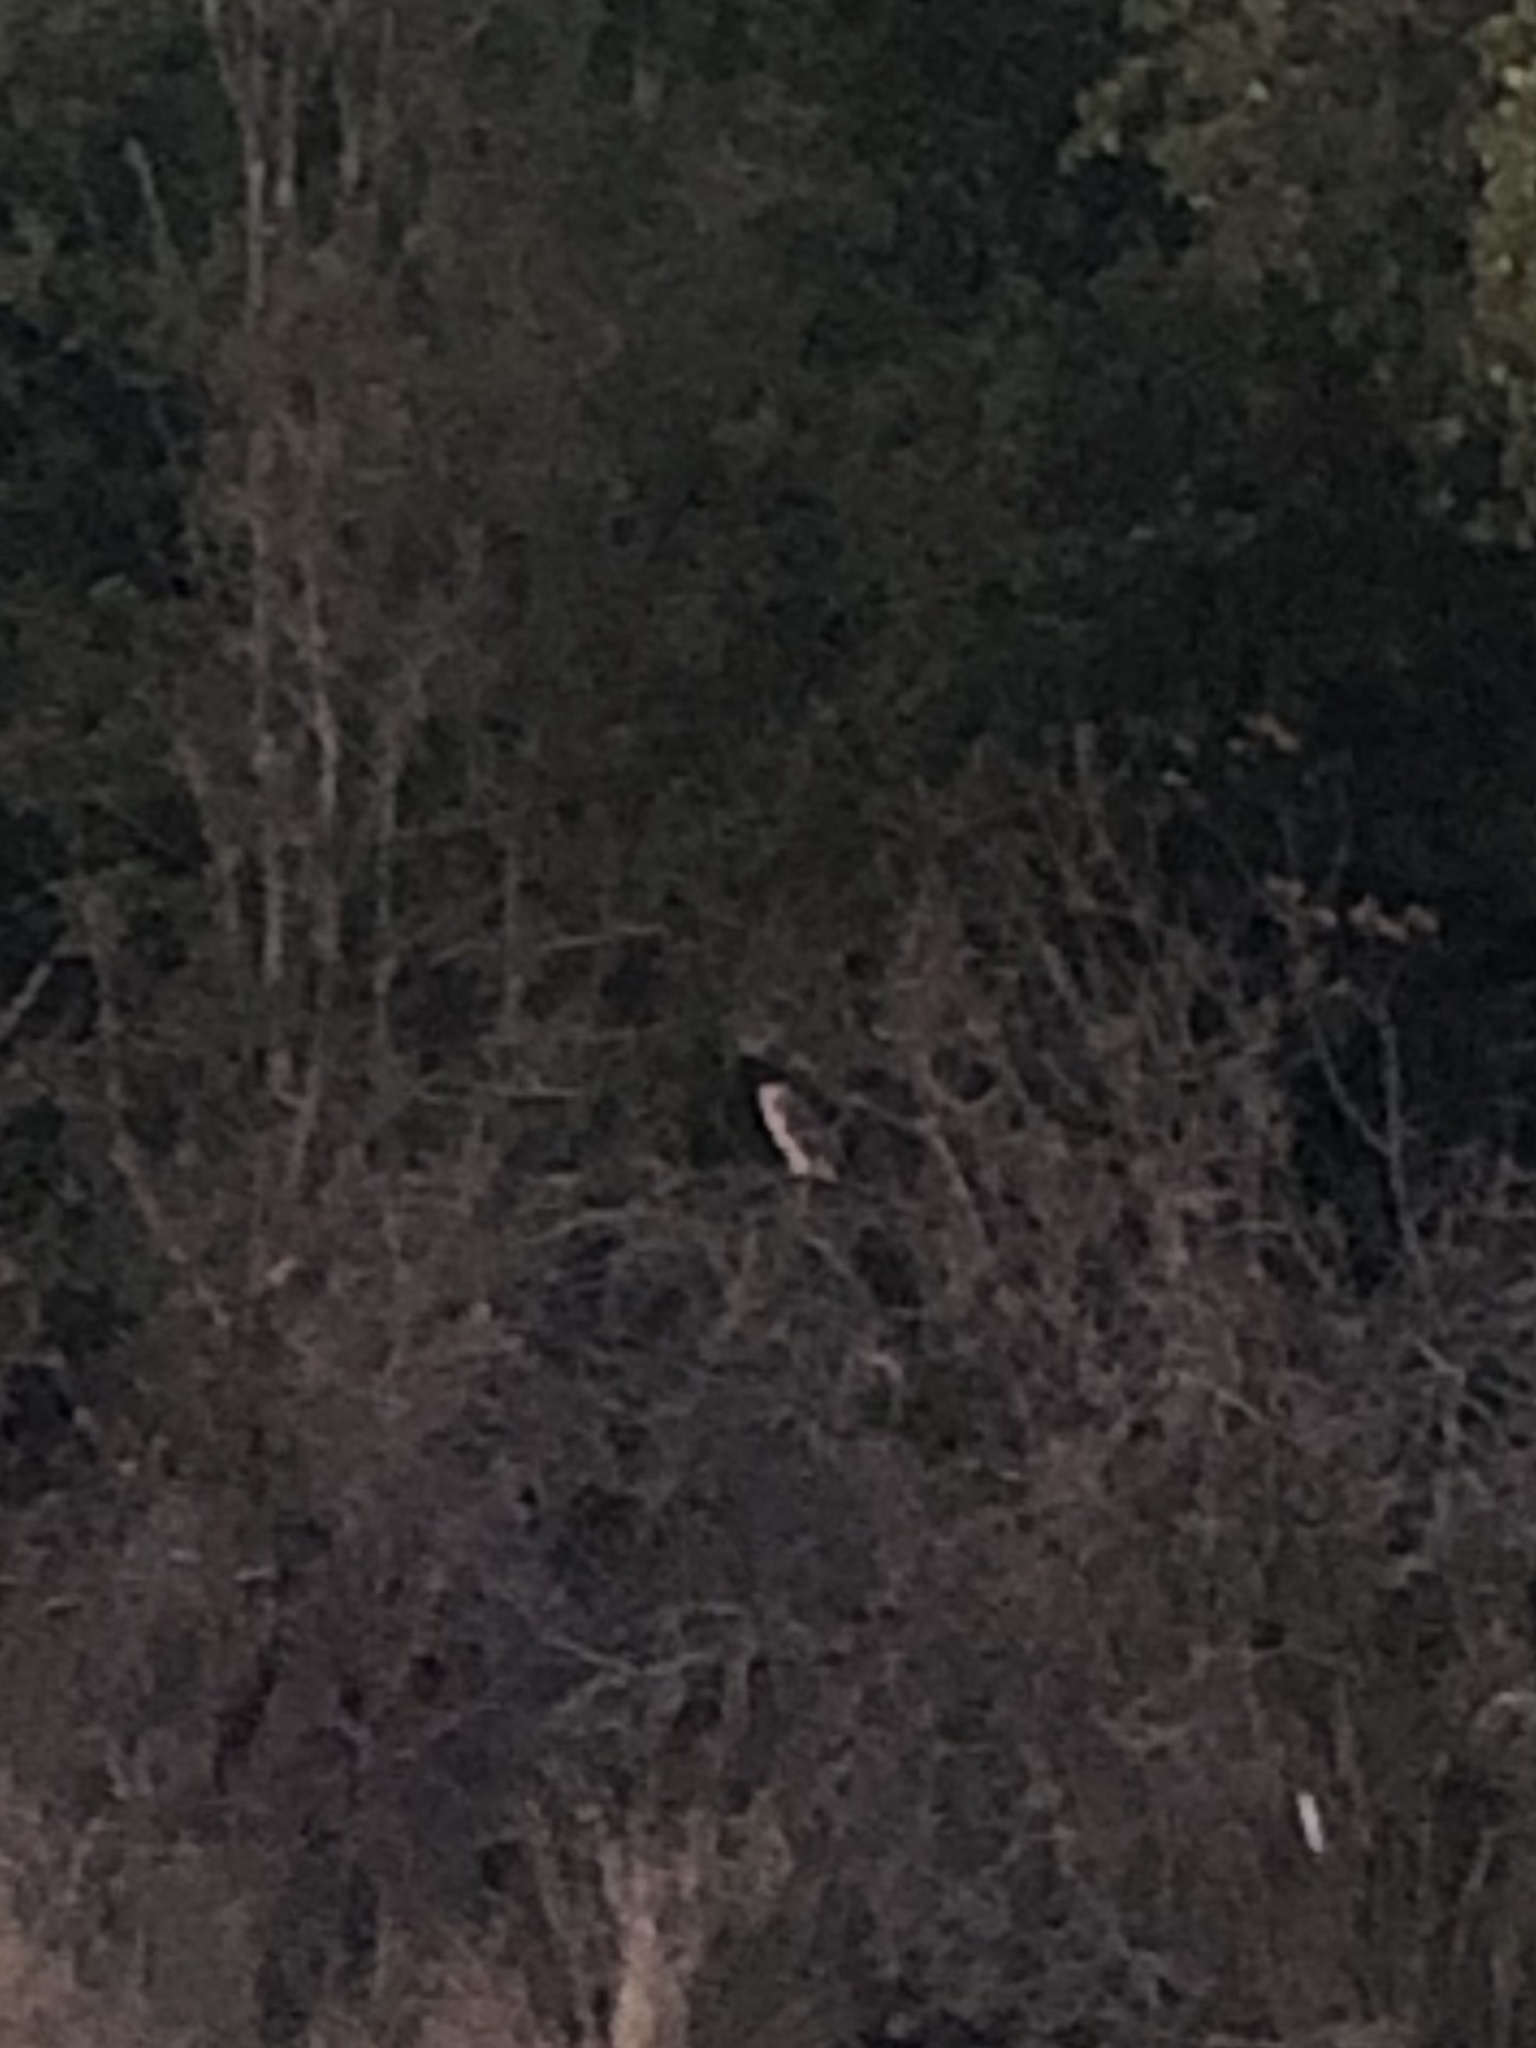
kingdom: Animalia
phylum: Chordata
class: Aves
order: Strigiformes
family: Strigidae
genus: Strix
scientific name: Strix varia
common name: Barred owl
